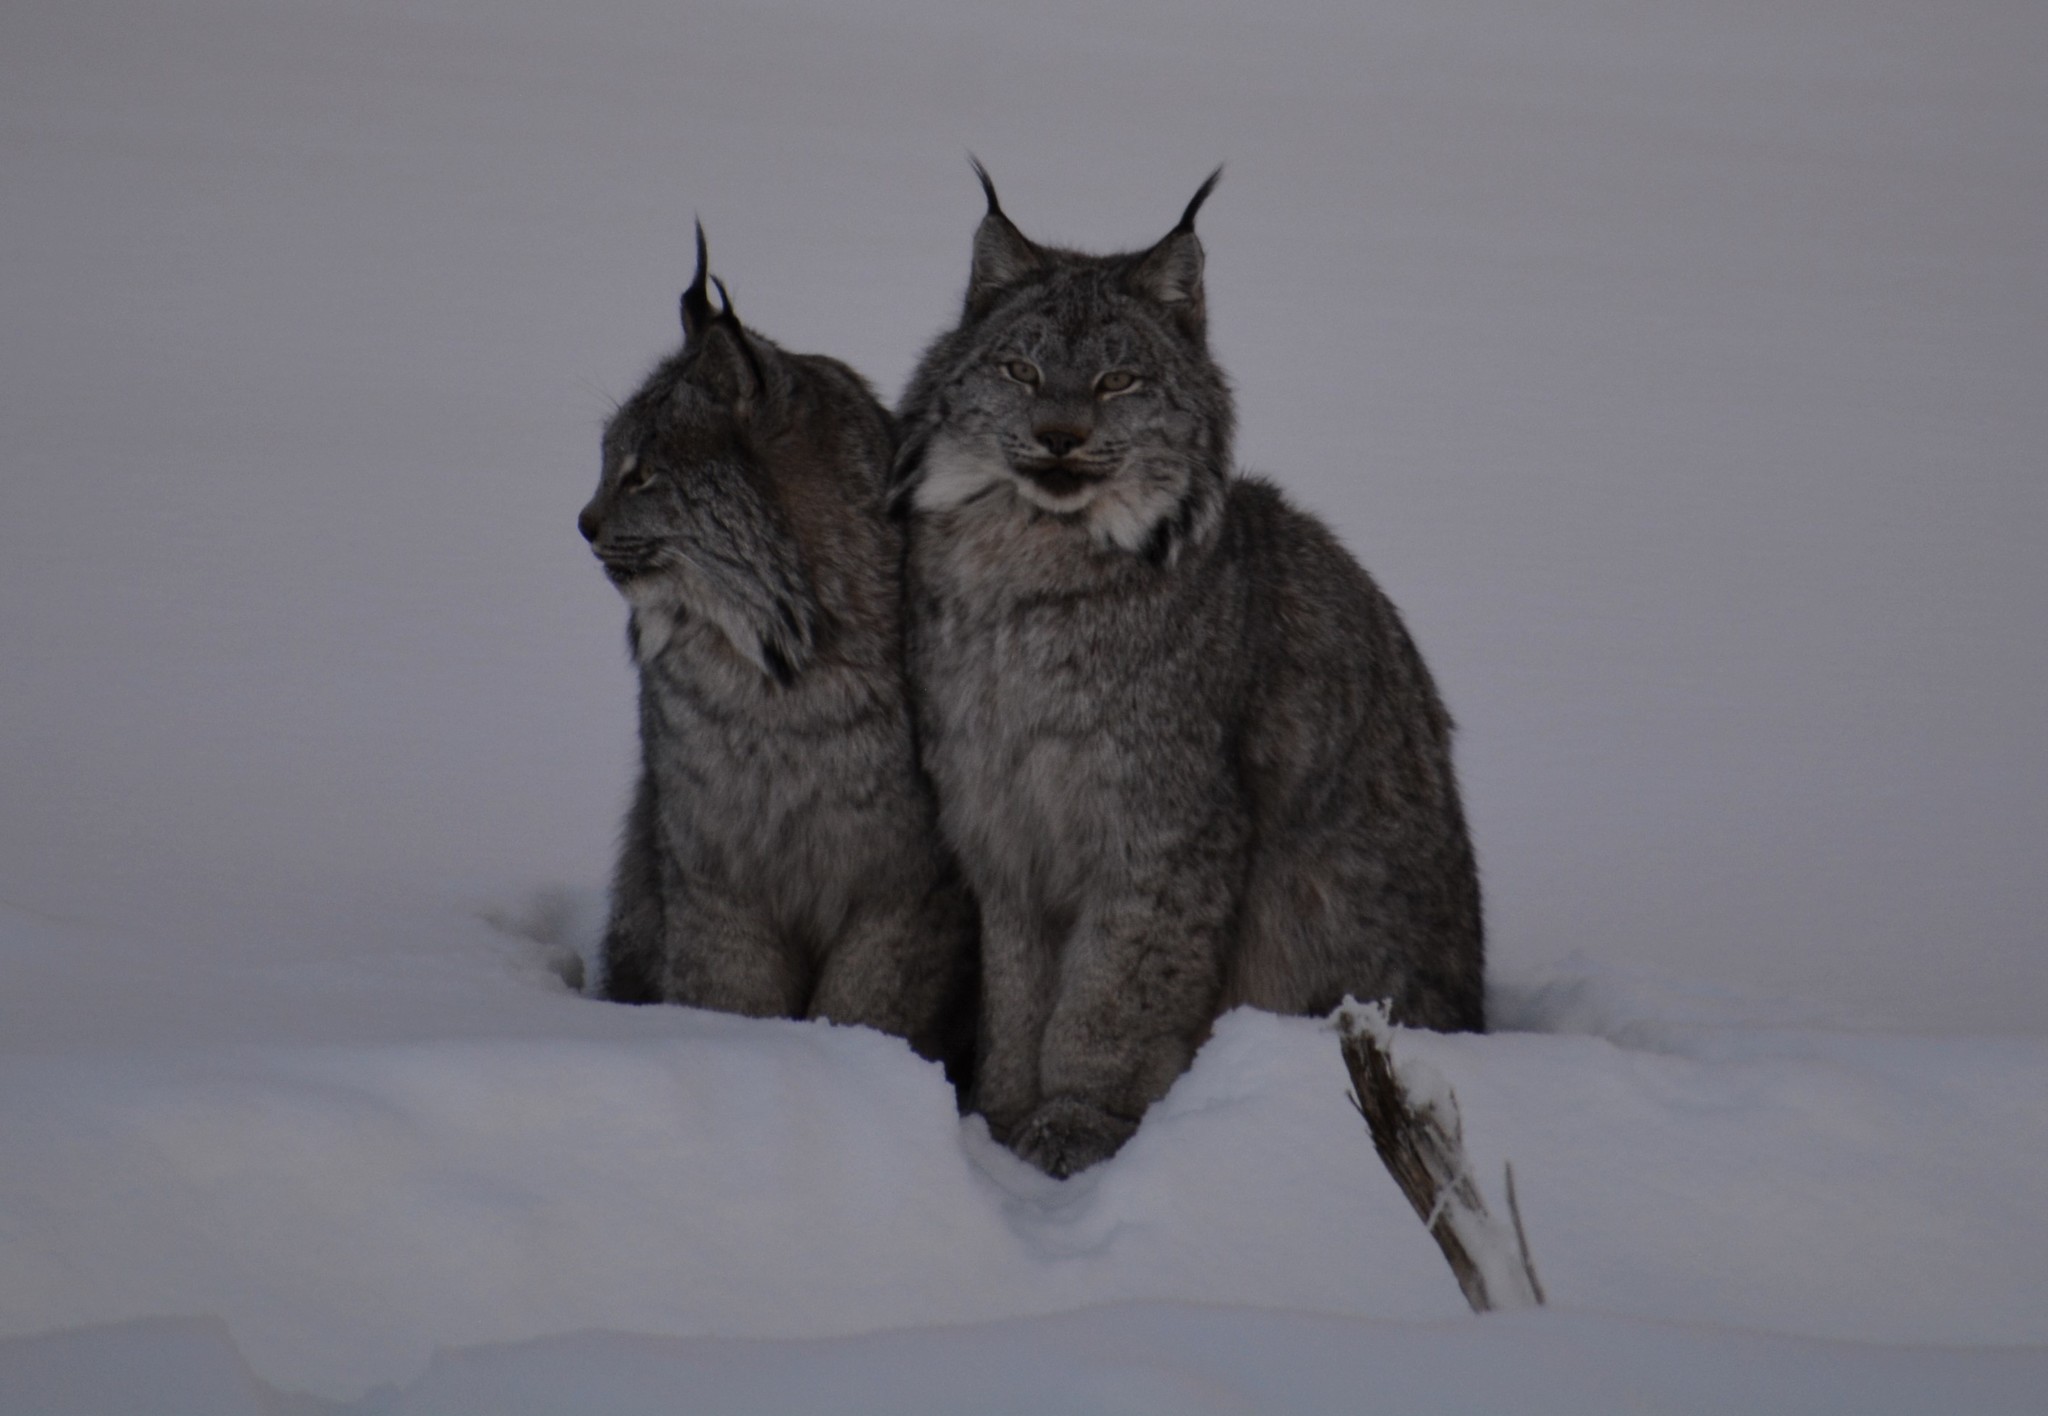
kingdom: Animalia
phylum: Chordata
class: Mammalia
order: Carnivora
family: Felidae
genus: Lynx
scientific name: Lynx canadensis
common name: Canadian lynx
